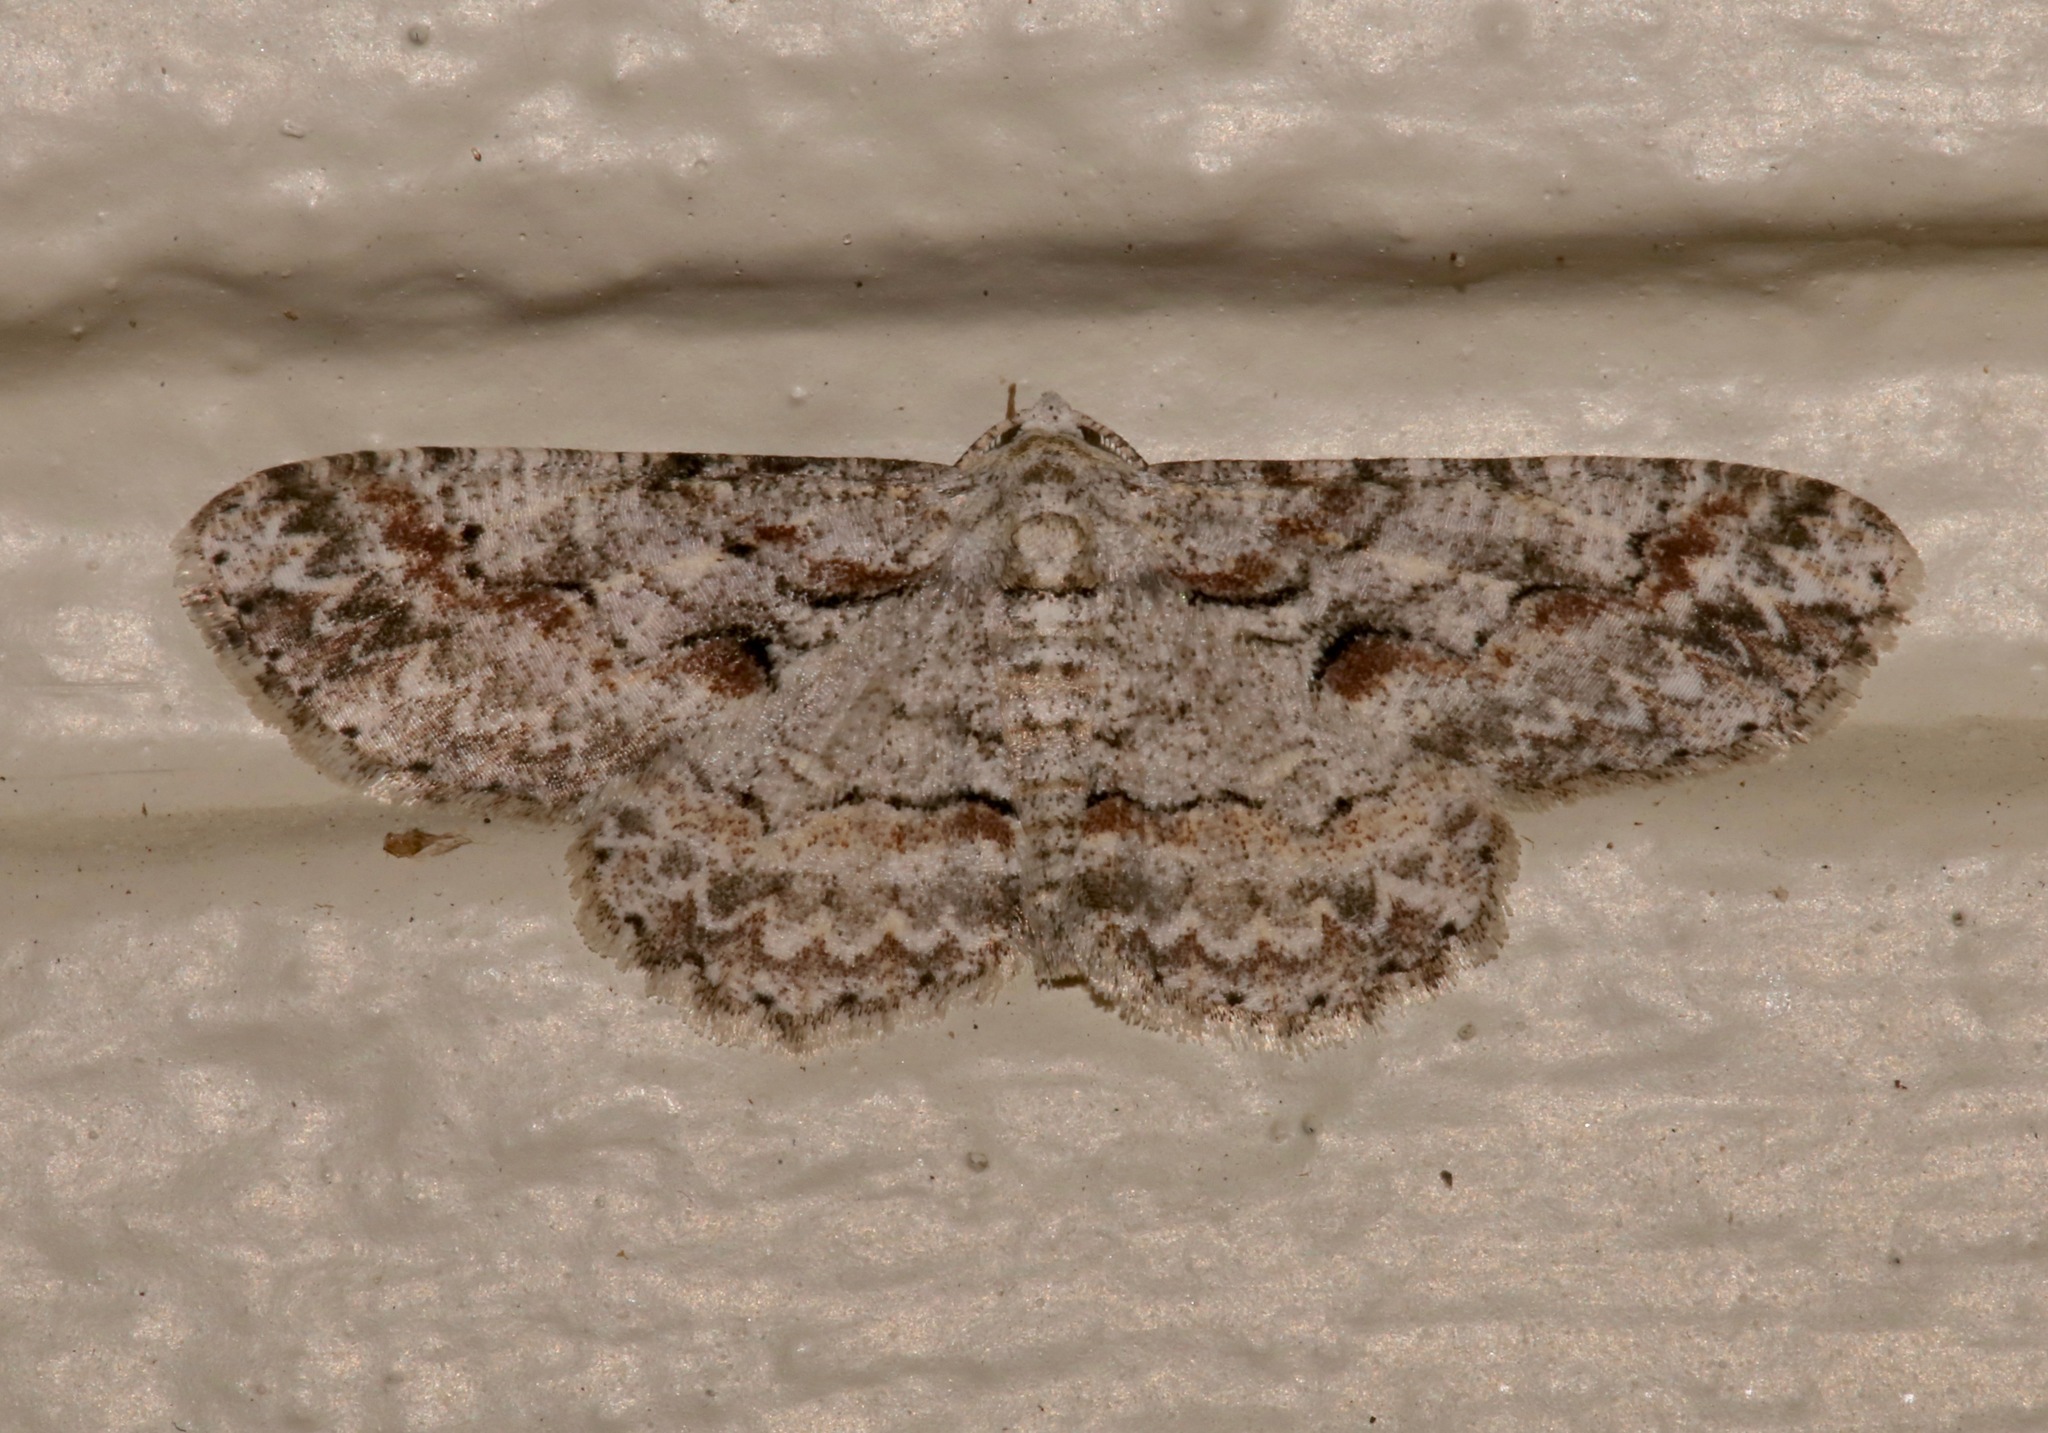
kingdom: Animalia
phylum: Arthropoda
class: Insecta
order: Lepidoptera
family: Geometridae
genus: Iridopsis
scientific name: Iridopsis defectaria
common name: Brown-shaded gray
